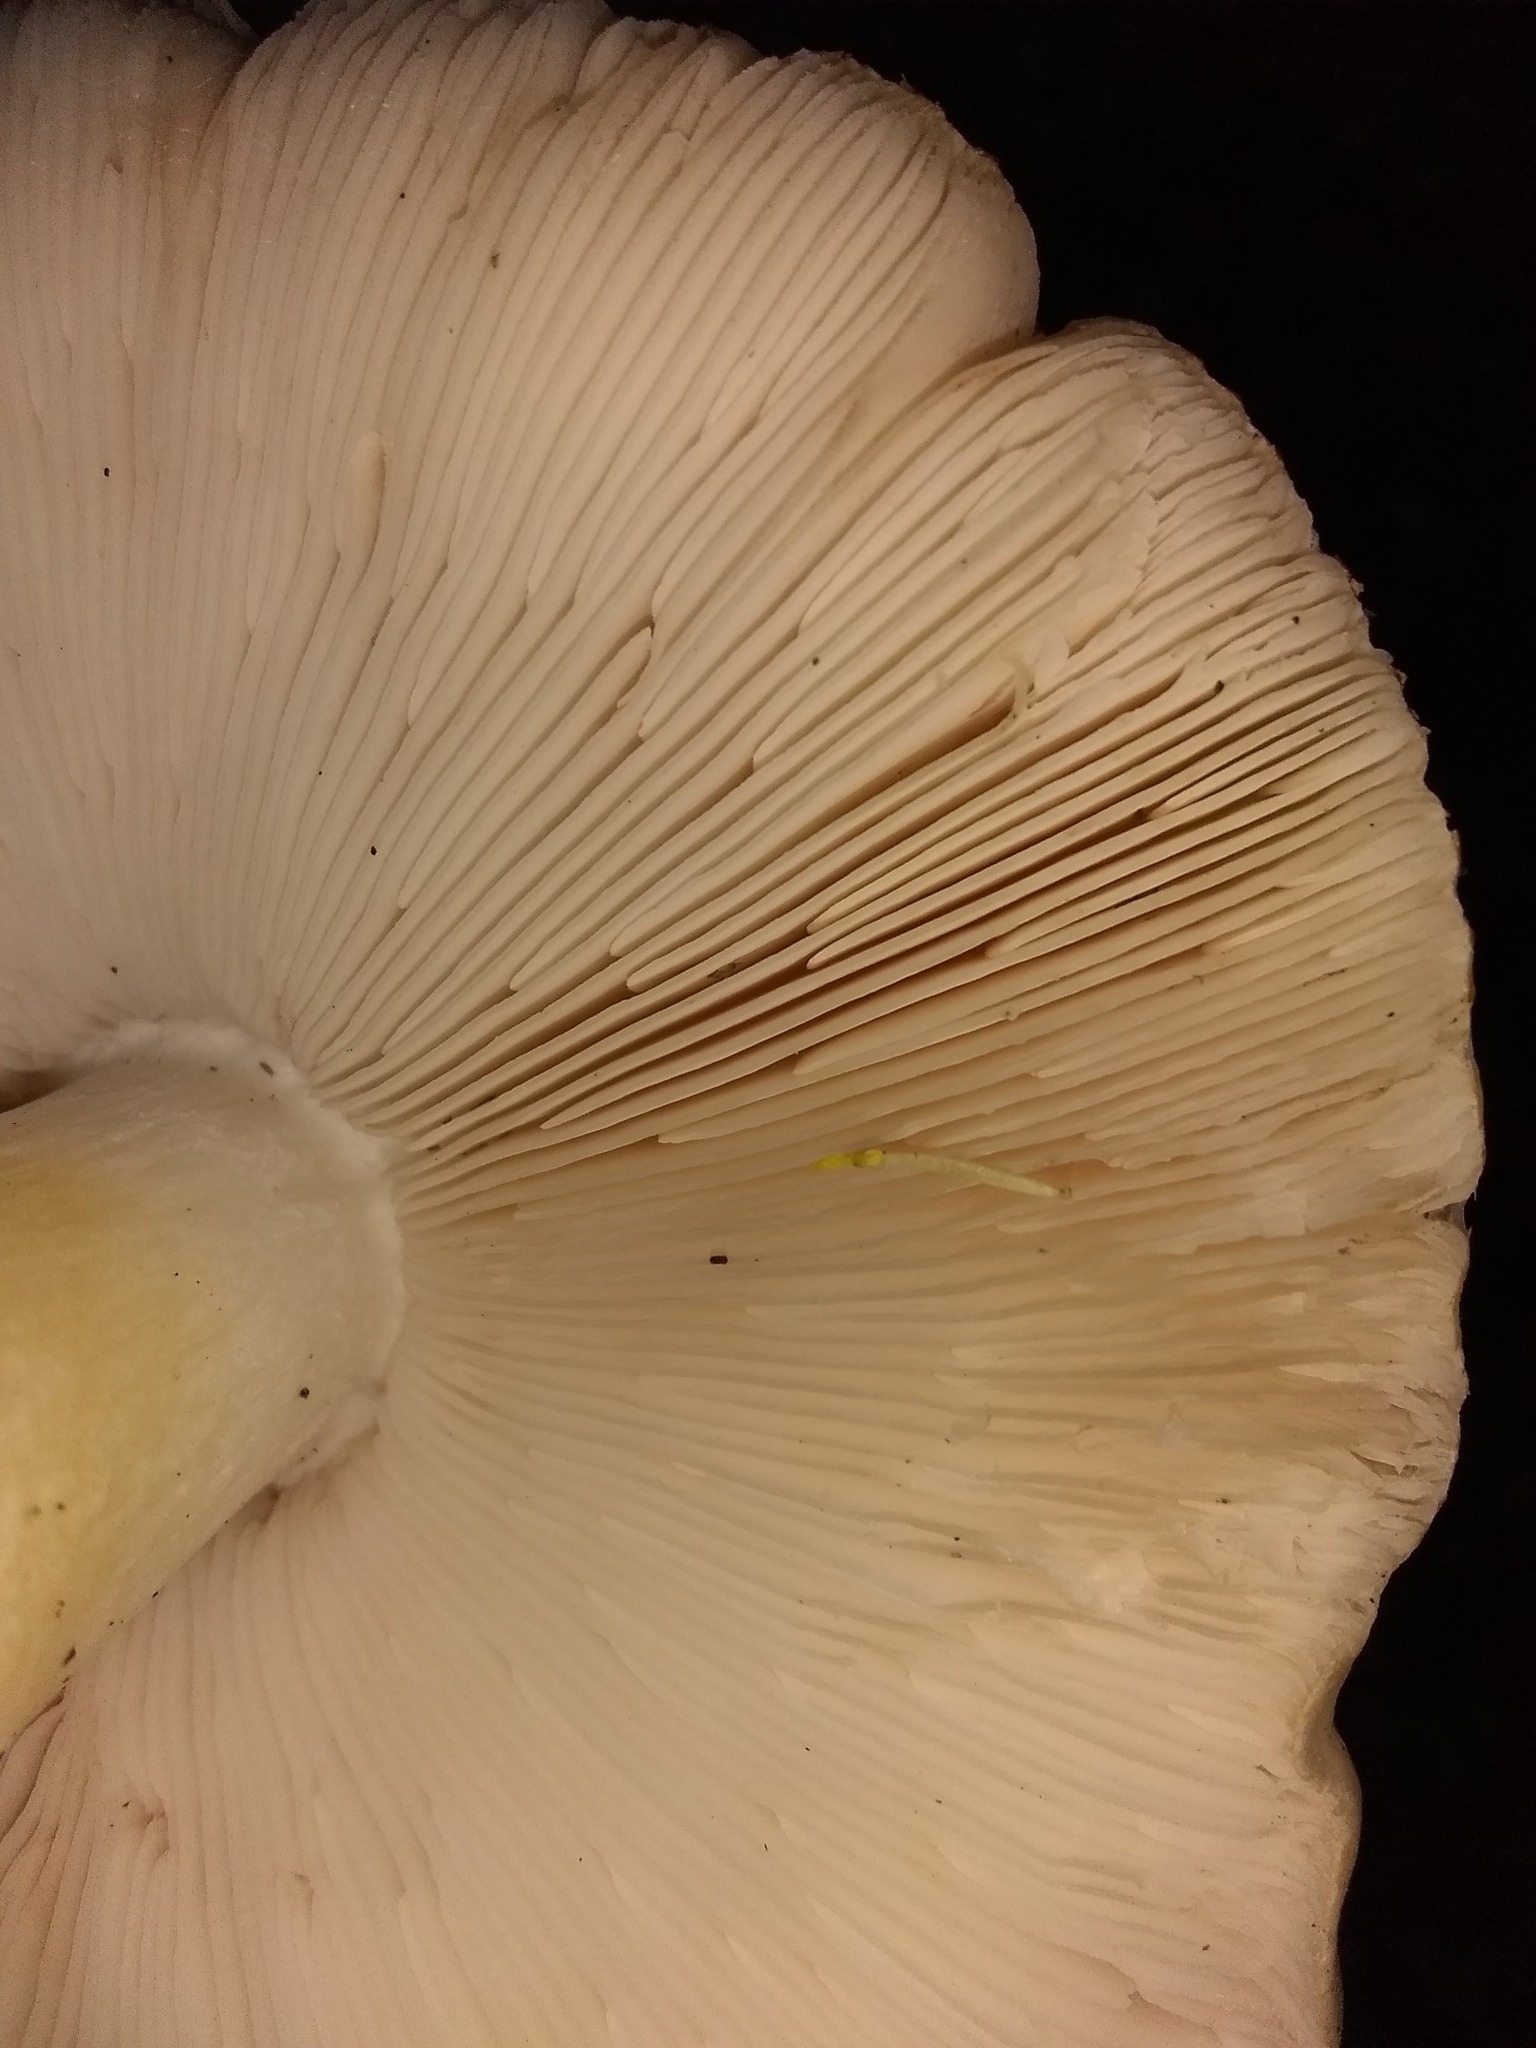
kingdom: Fungi
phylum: Basidiomycota
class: Agaricomycetes
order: Agaricales
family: Pluteaceae
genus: Pluteus
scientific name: Pluteus petasatus
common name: Scaly shield
